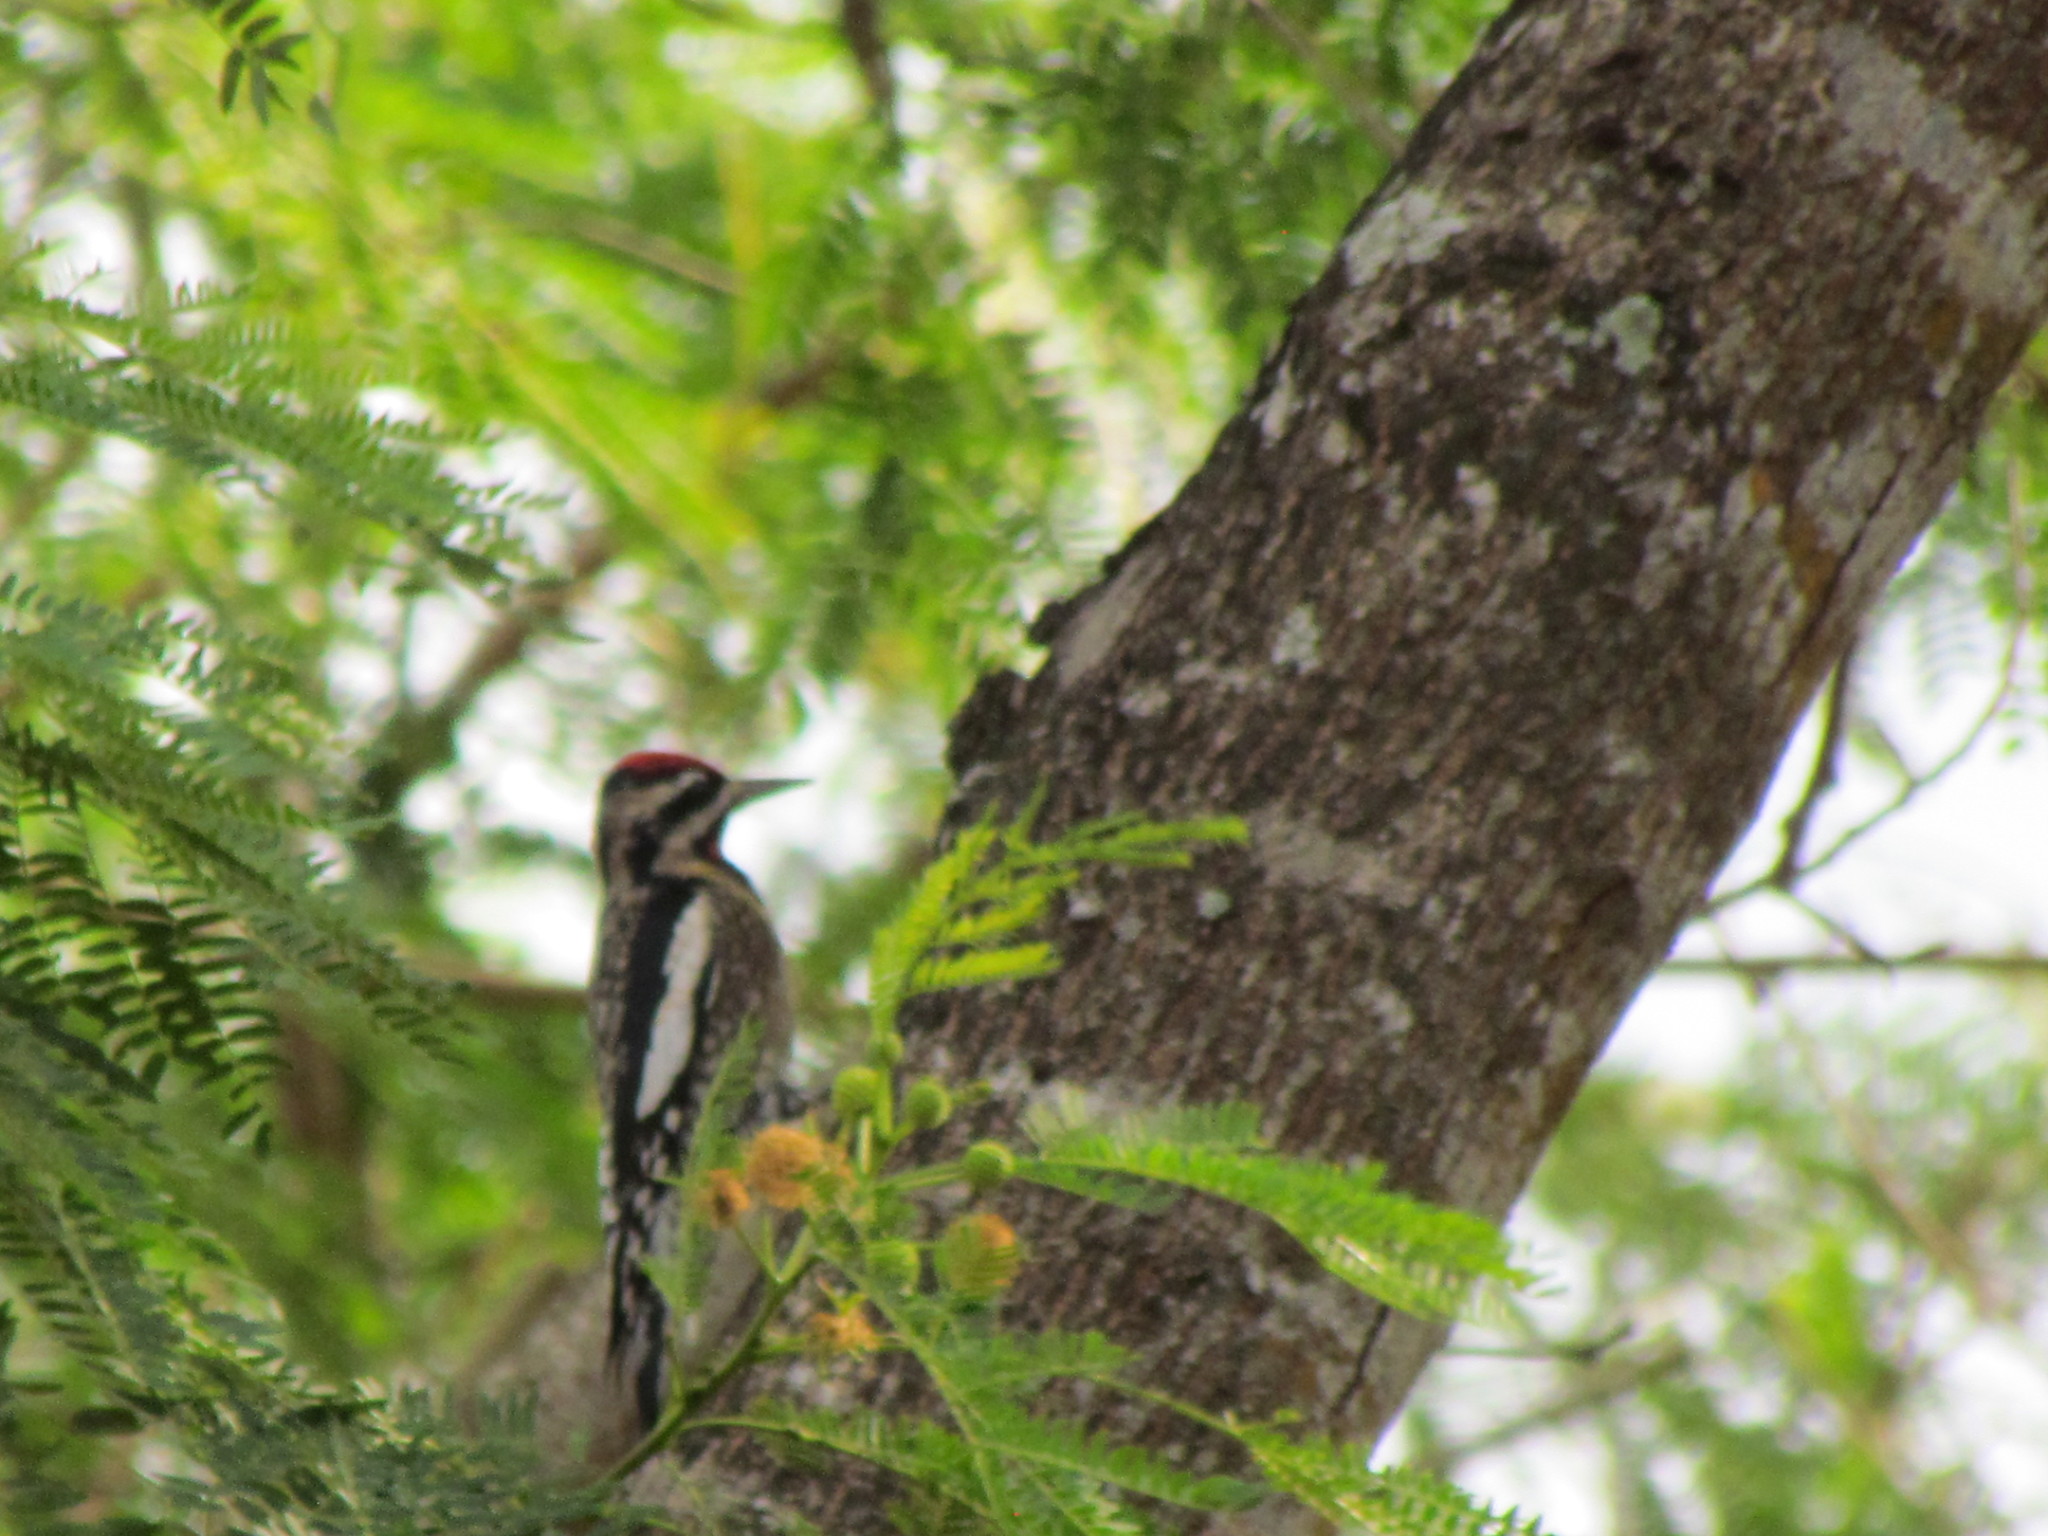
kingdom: Animalia
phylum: Chordata
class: Aves
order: Piciformes
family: Picidae
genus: Sphyrapicus
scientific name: Sphyrapicus varius
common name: Yellow-bellied sapsucker
